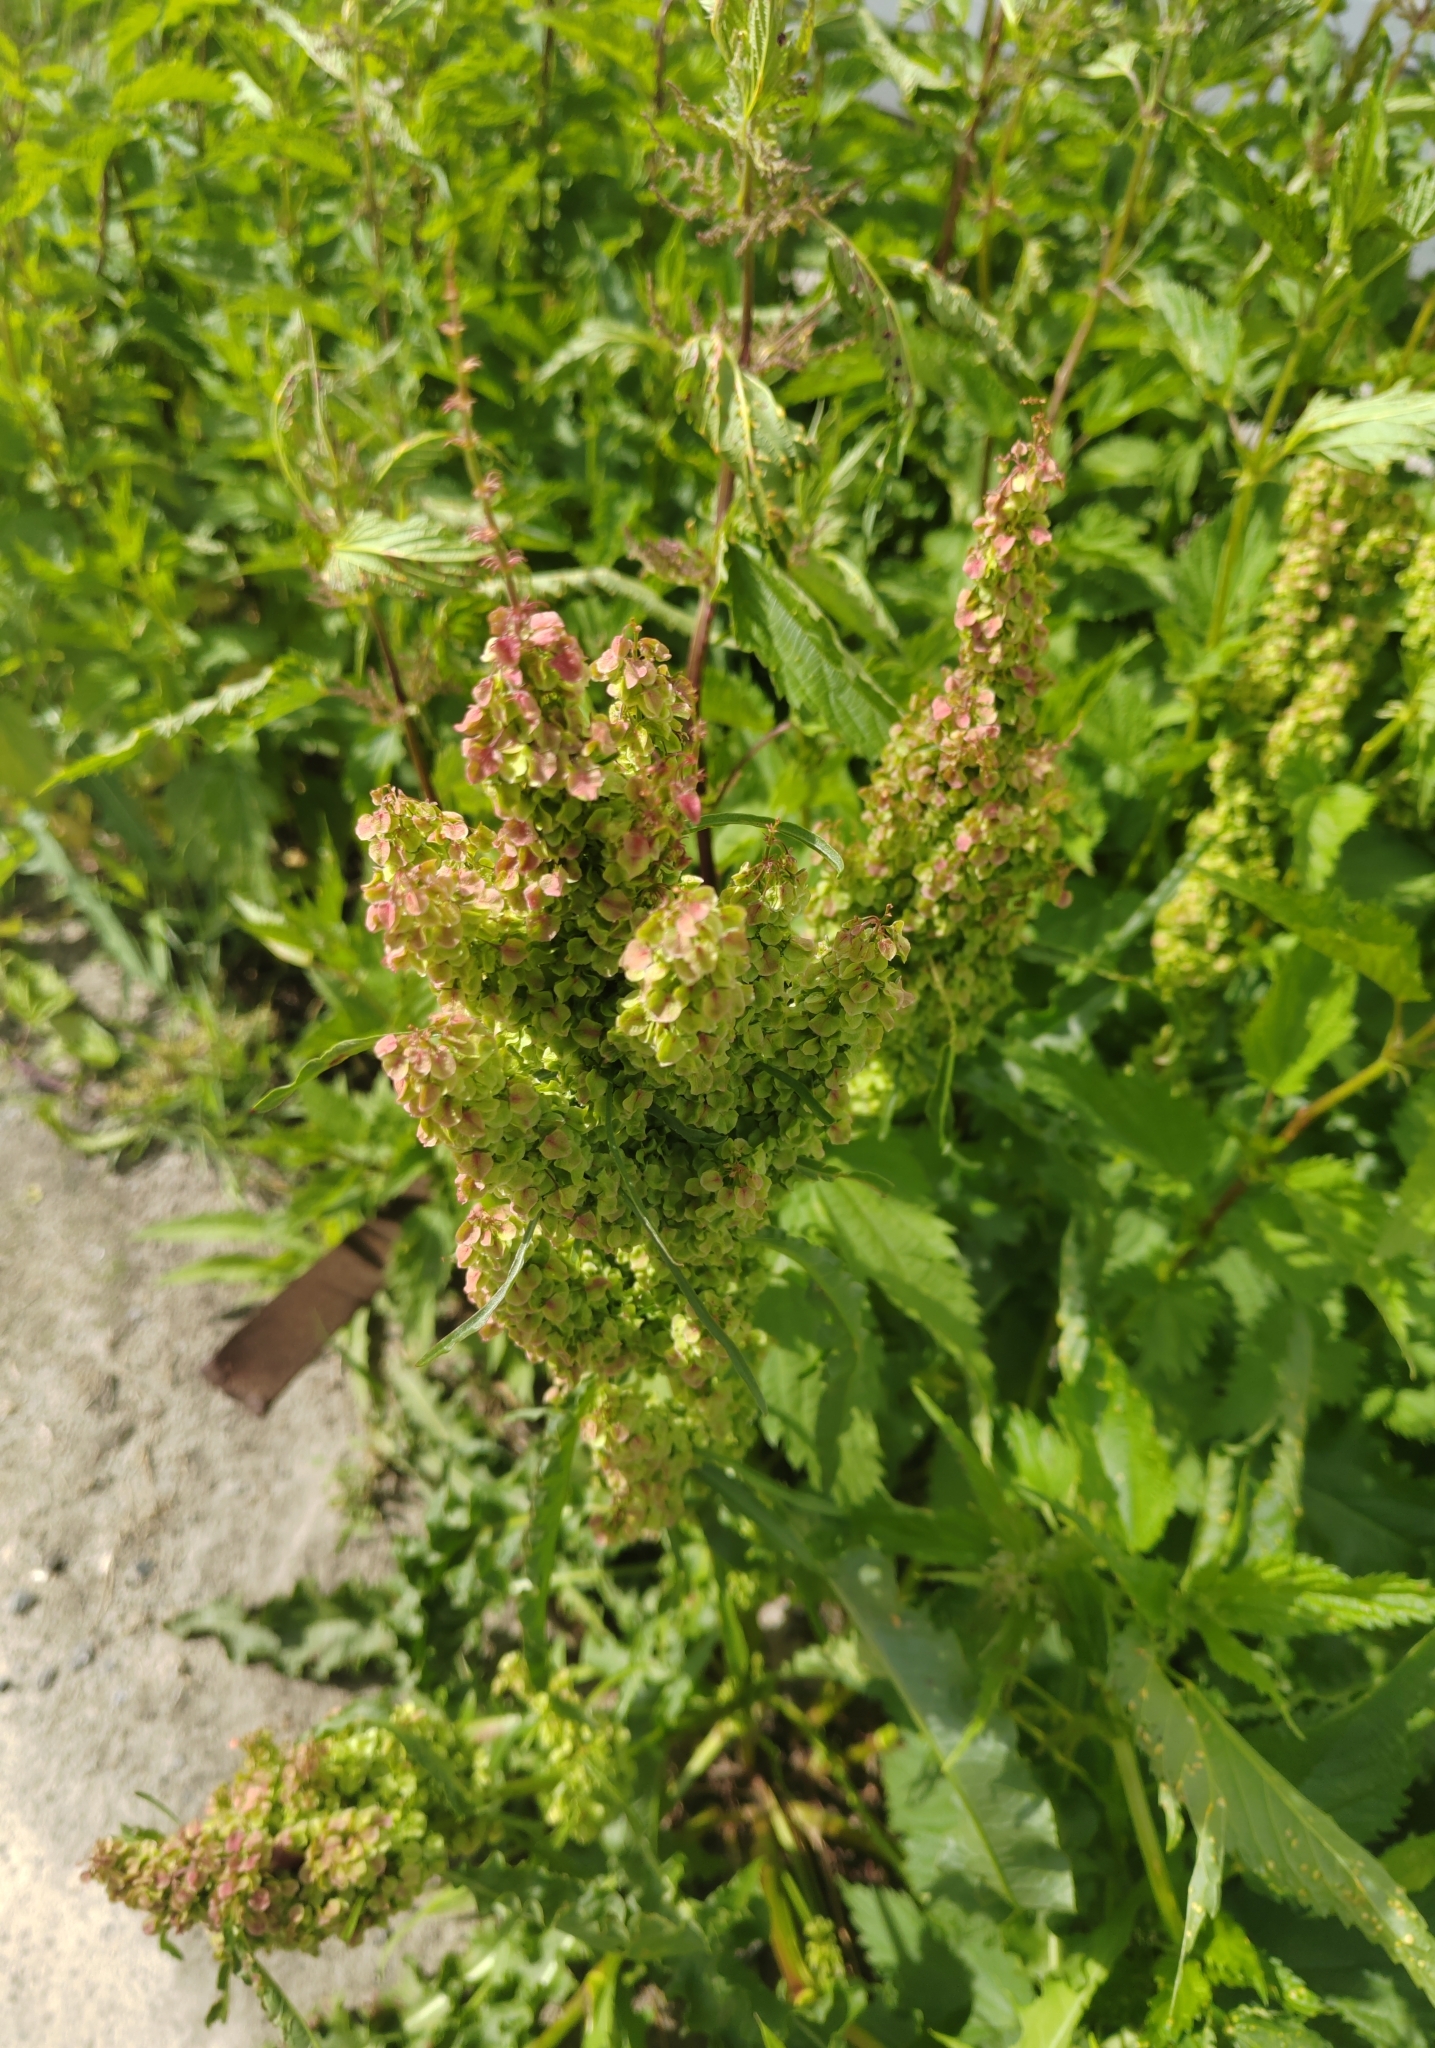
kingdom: Plantae
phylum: Tracheophyta
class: Magnoliopsida
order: Caryophyllales
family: Polygonaceae
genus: Rumex
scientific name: Rumex pseudonatronatus
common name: Field dock
